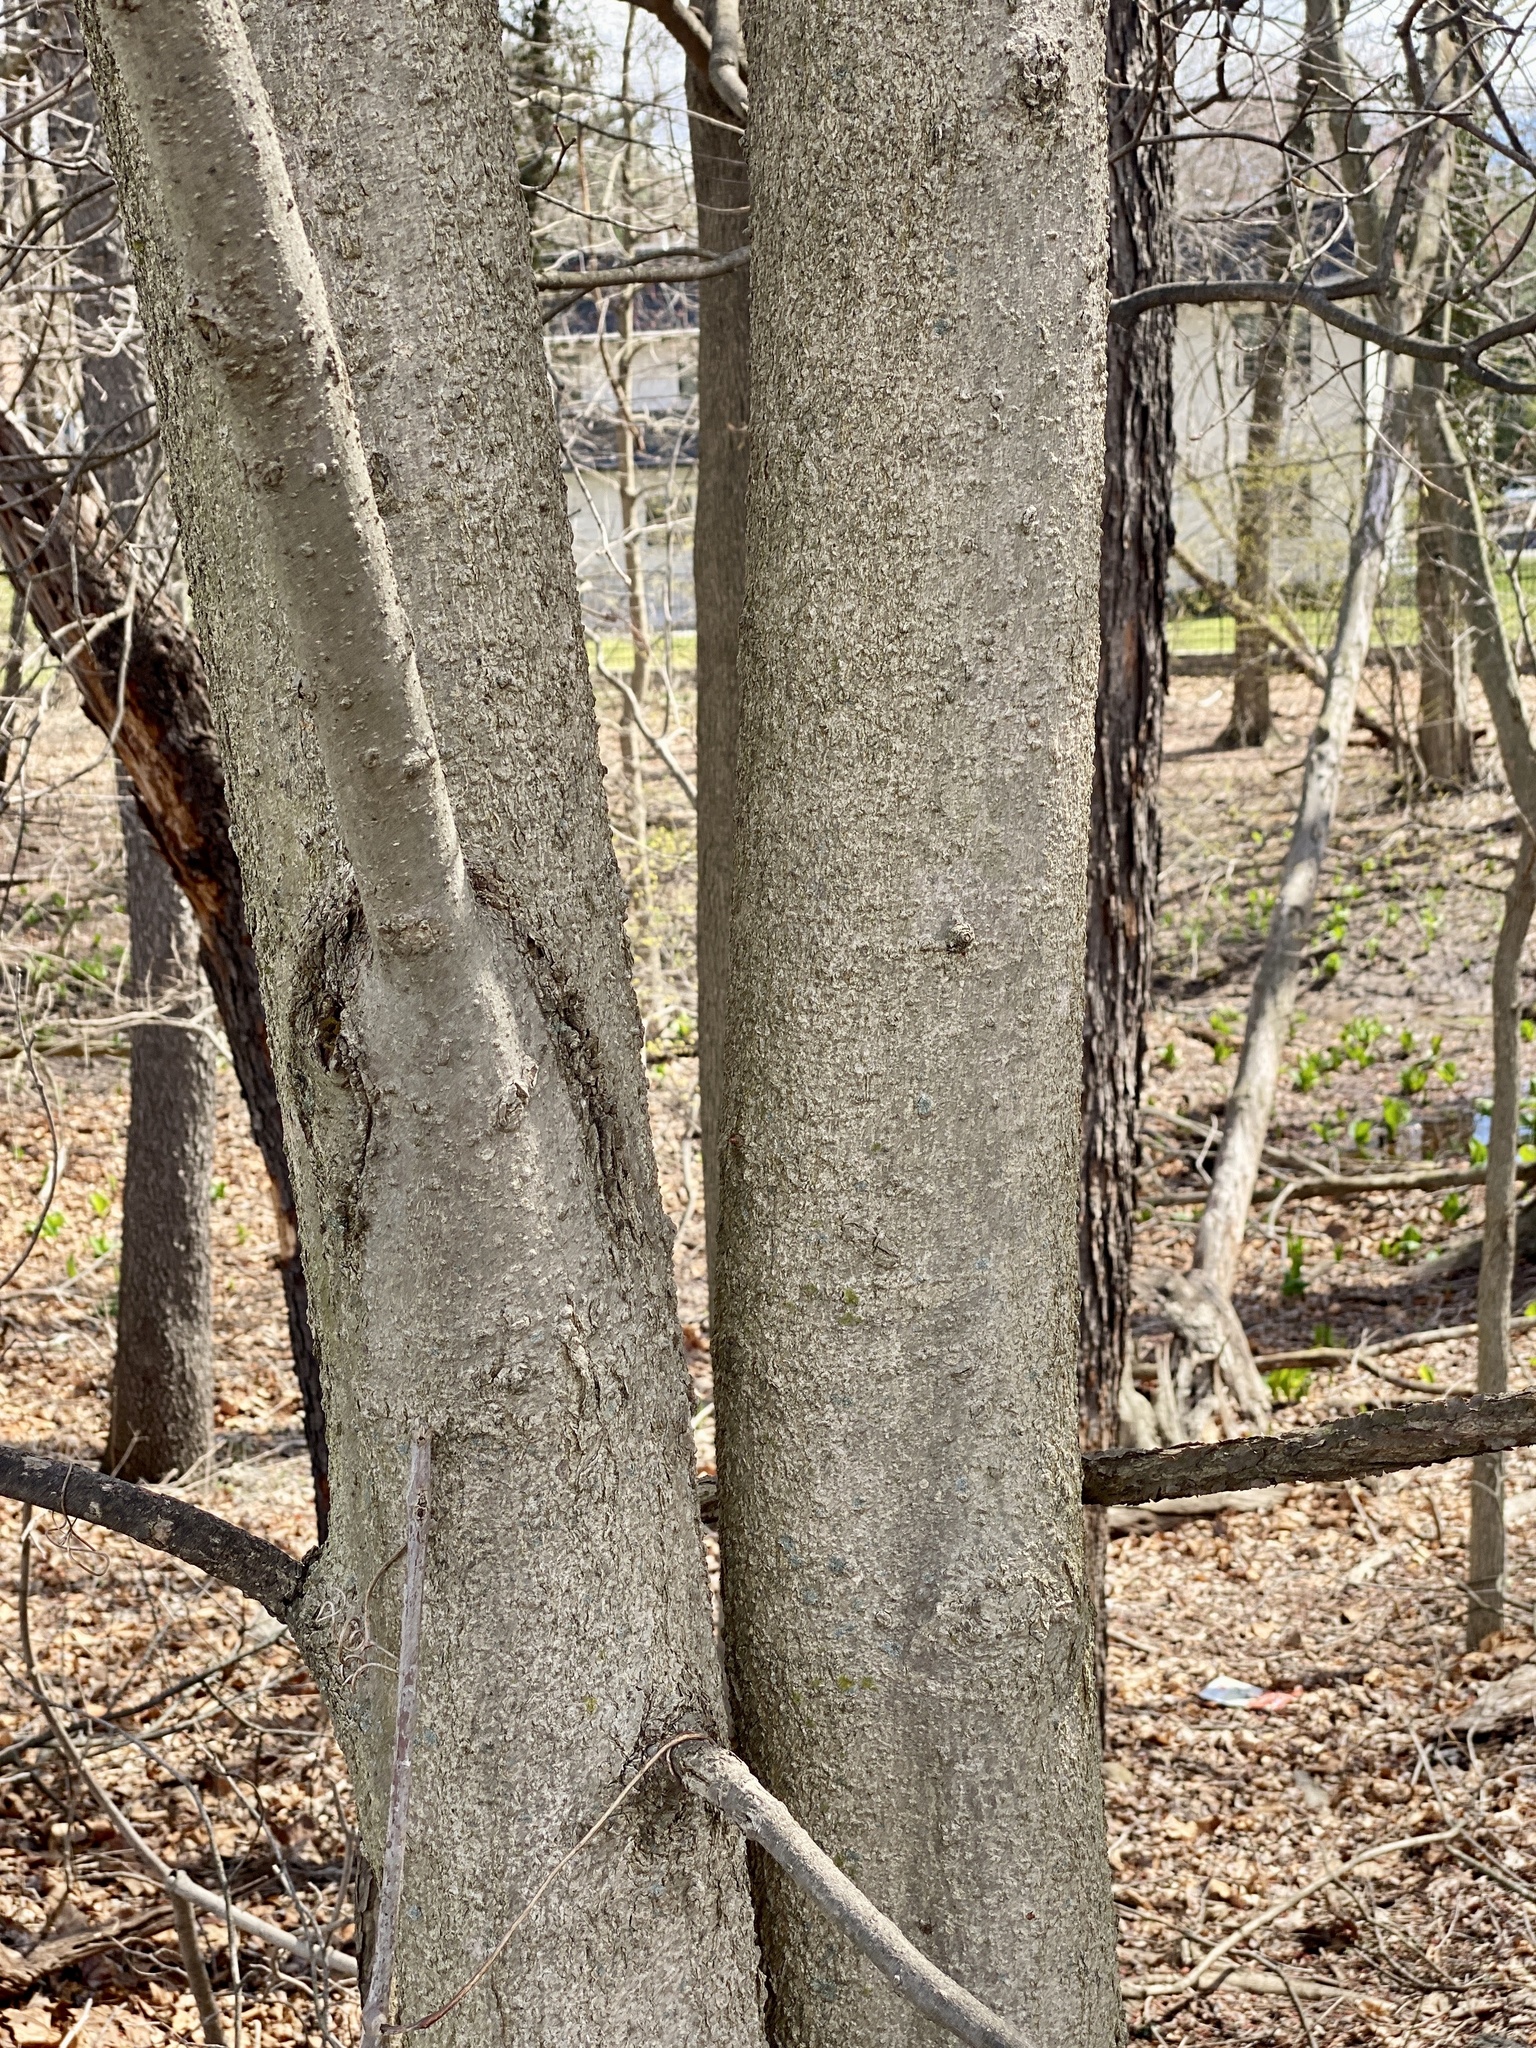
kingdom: Plantae
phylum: Tracheophyta
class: Magnoliopsida
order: Sapindales
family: Sapindaceae
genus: Aesculus
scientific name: Aesculus flava
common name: Yellow buckeye
